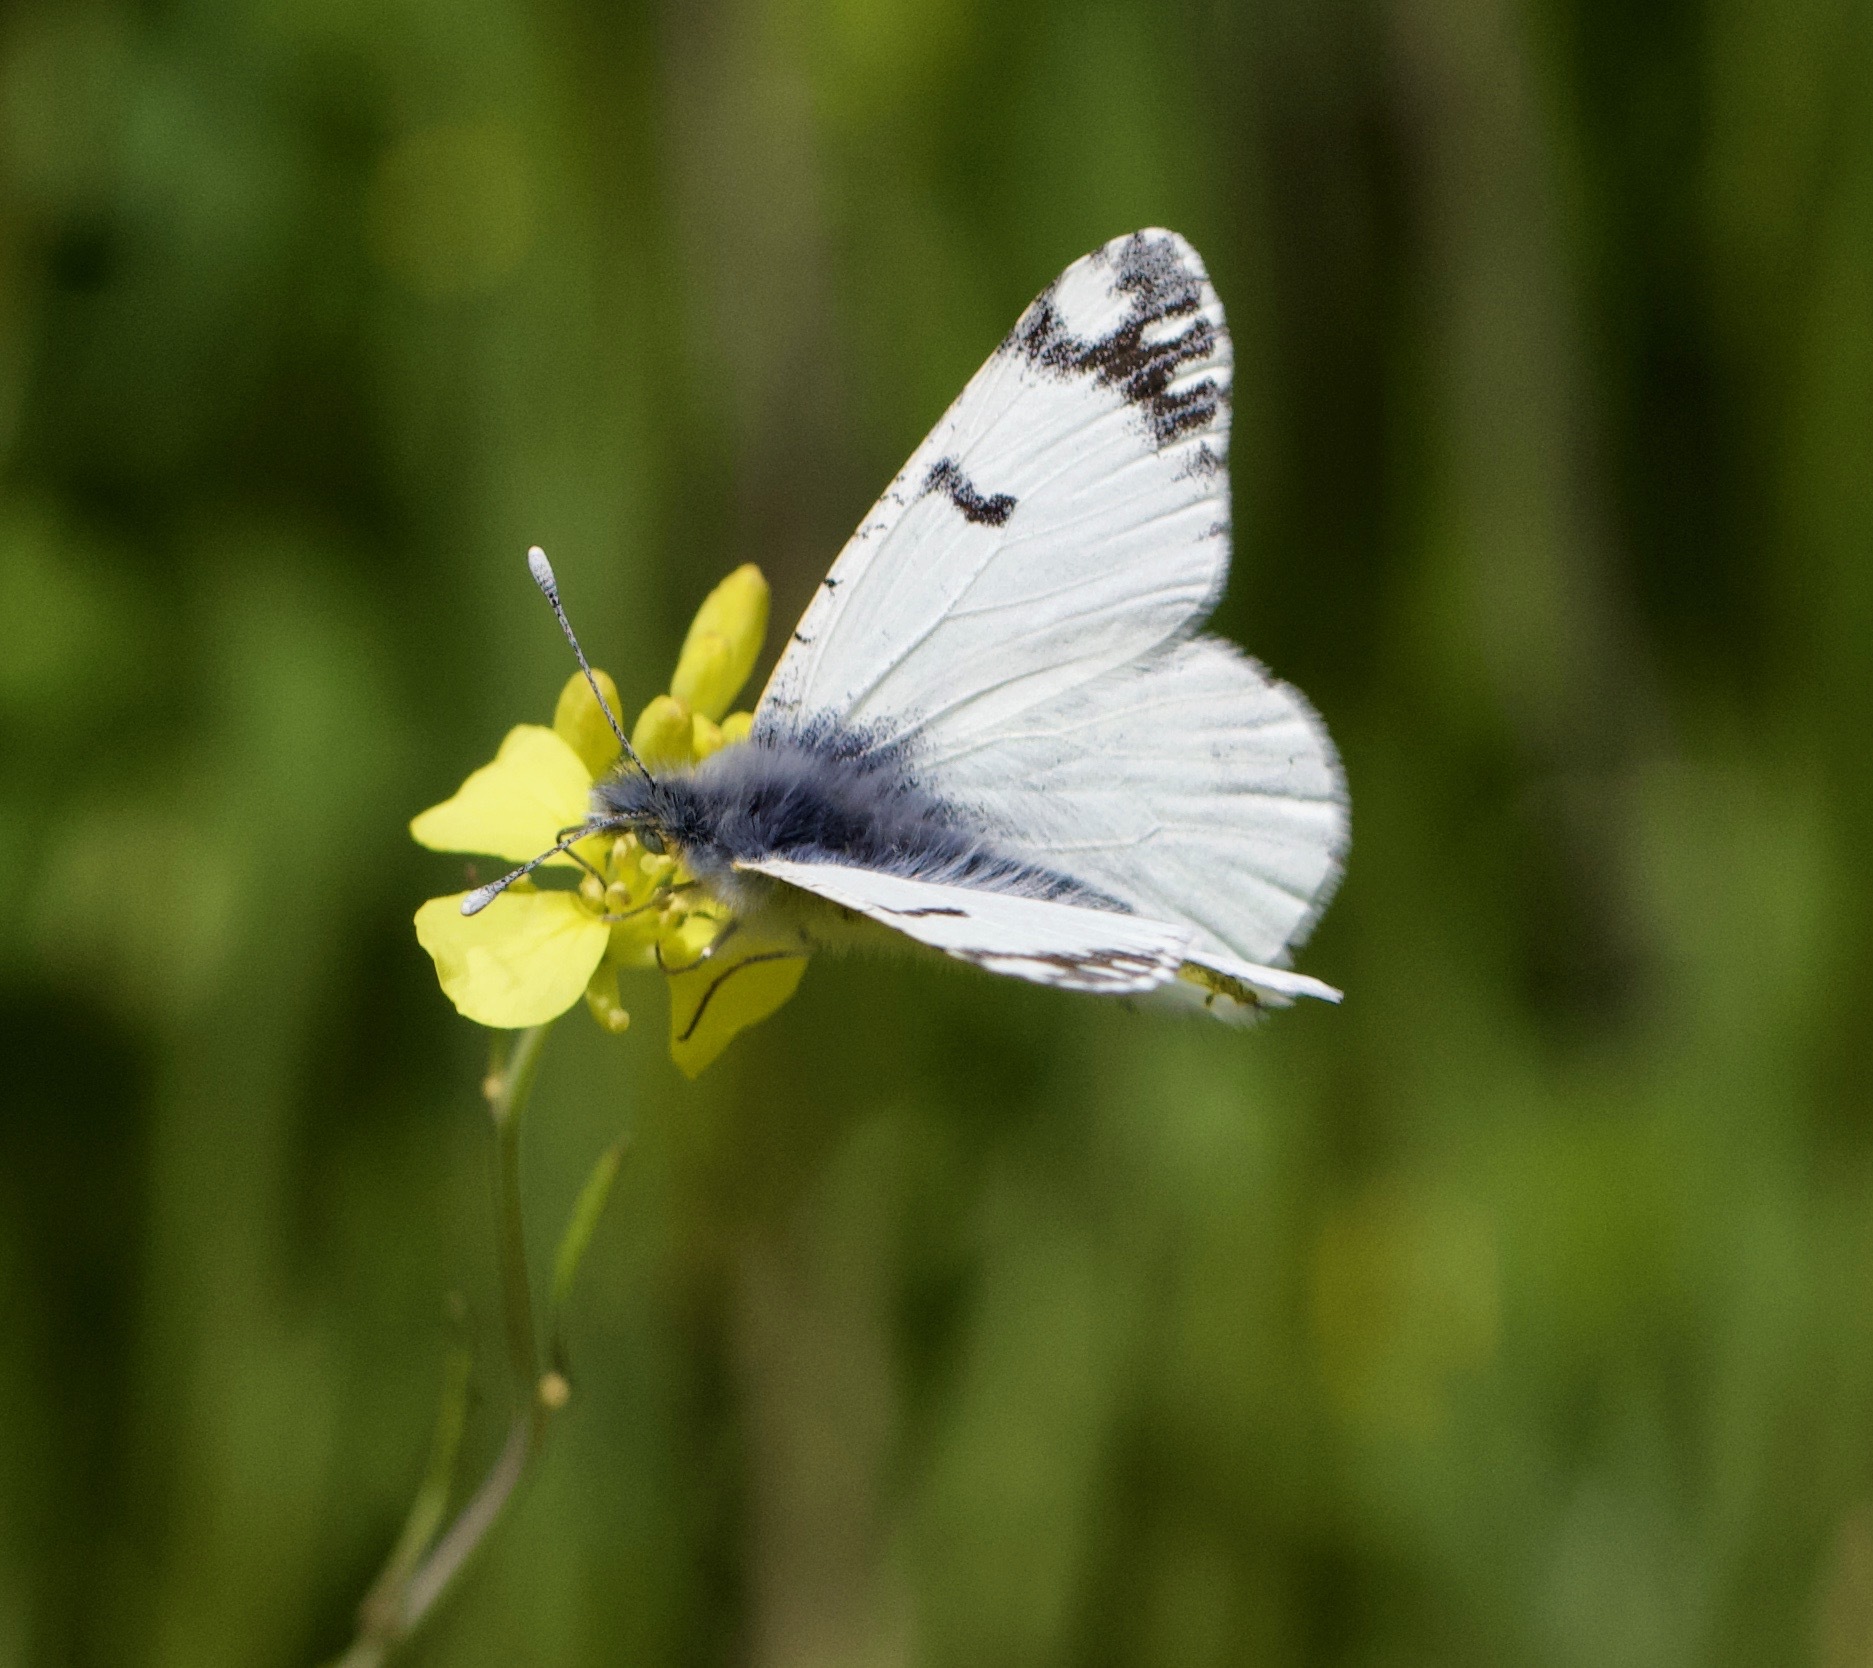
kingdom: Animalia
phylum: Arthropoda
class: Insecta
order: Lepidoptera
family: Pieridae
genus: Euchloe
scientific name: Euchloe ausonides
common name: Creamy marblewing
